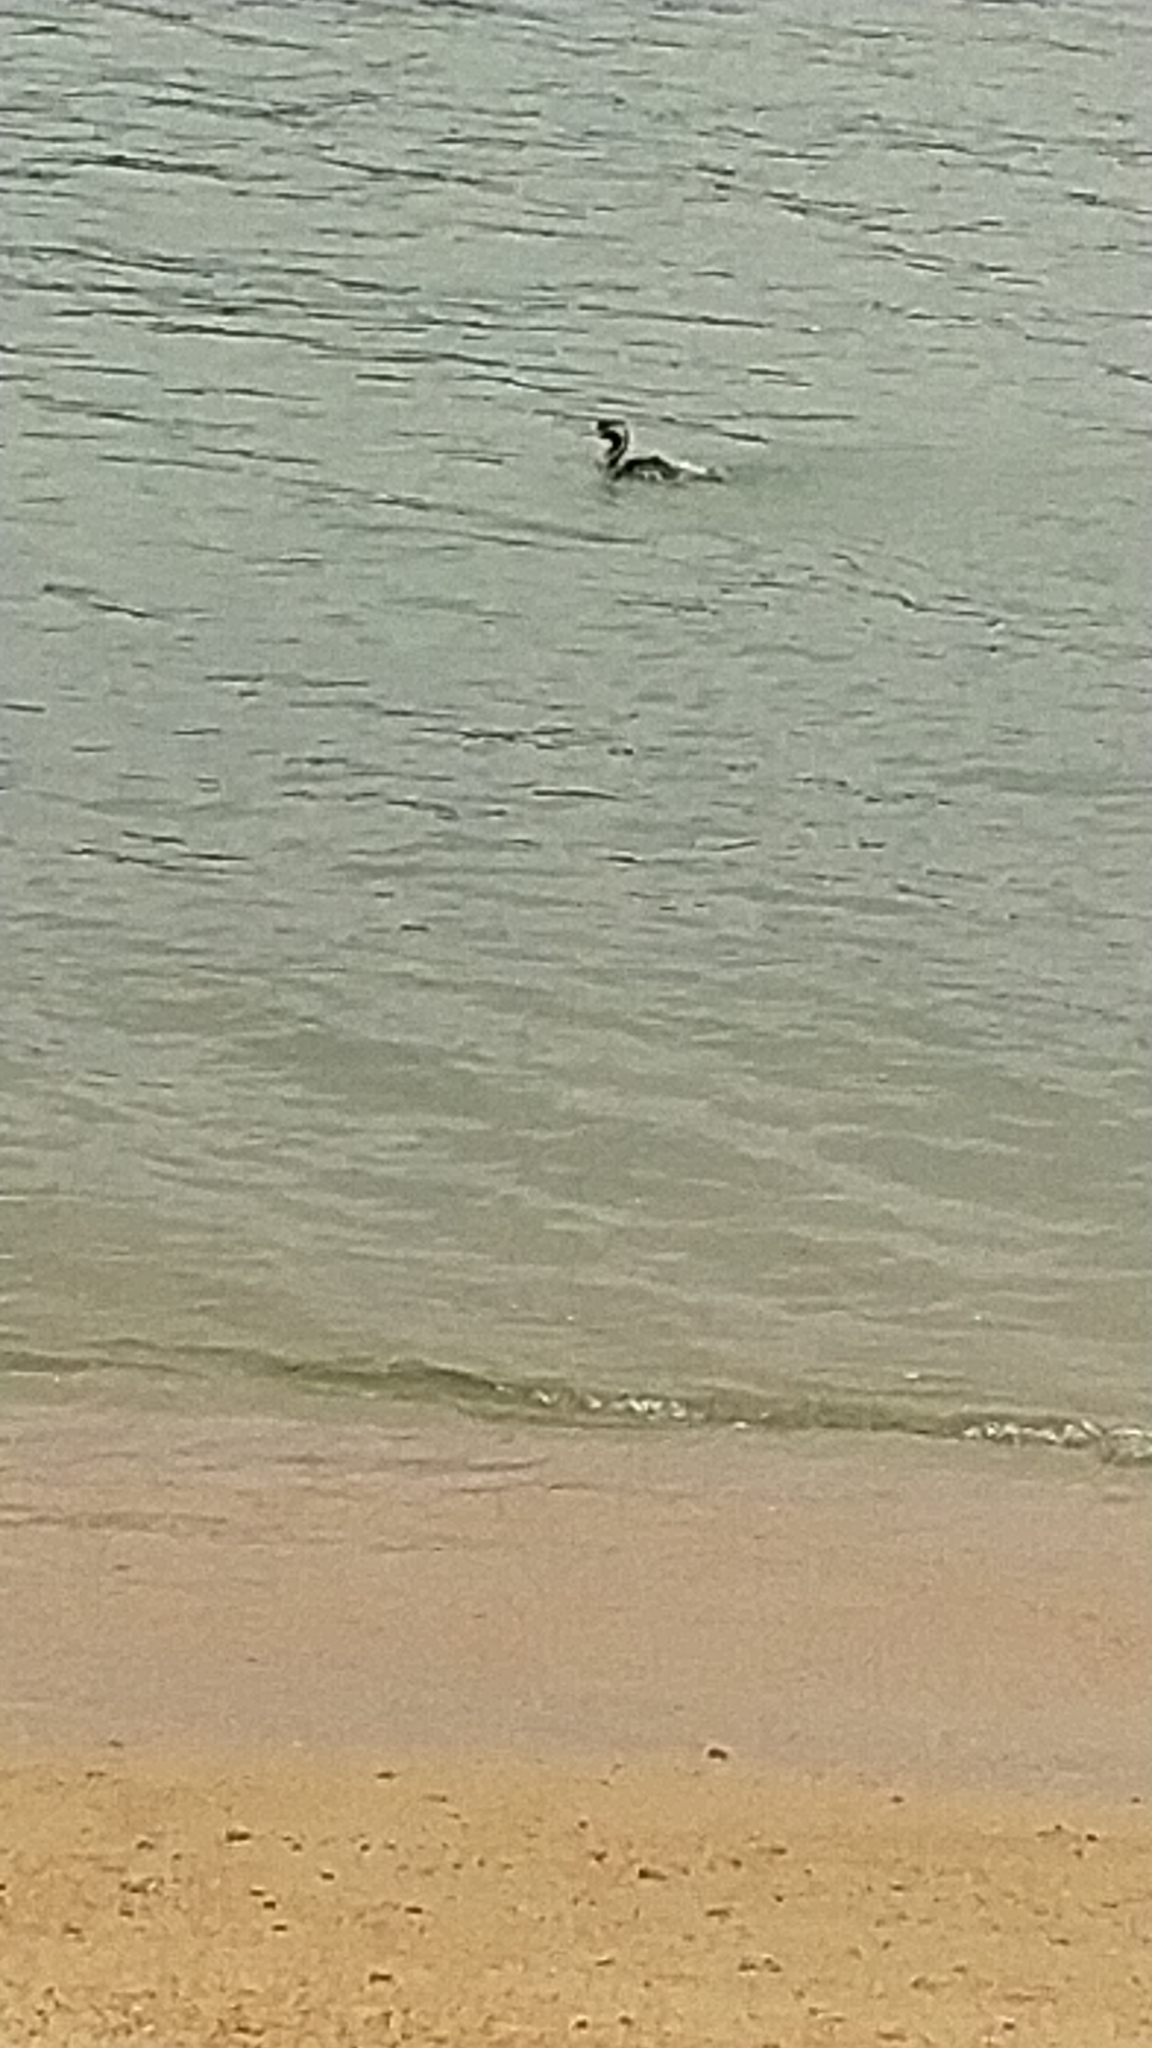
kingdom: Animalia
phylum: Chordata
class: Aves
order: Suliformes
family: Phalacrocoracidae
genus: Phalacrocorax
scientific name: Phalacrocorax punctatus
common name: Spotted shag
